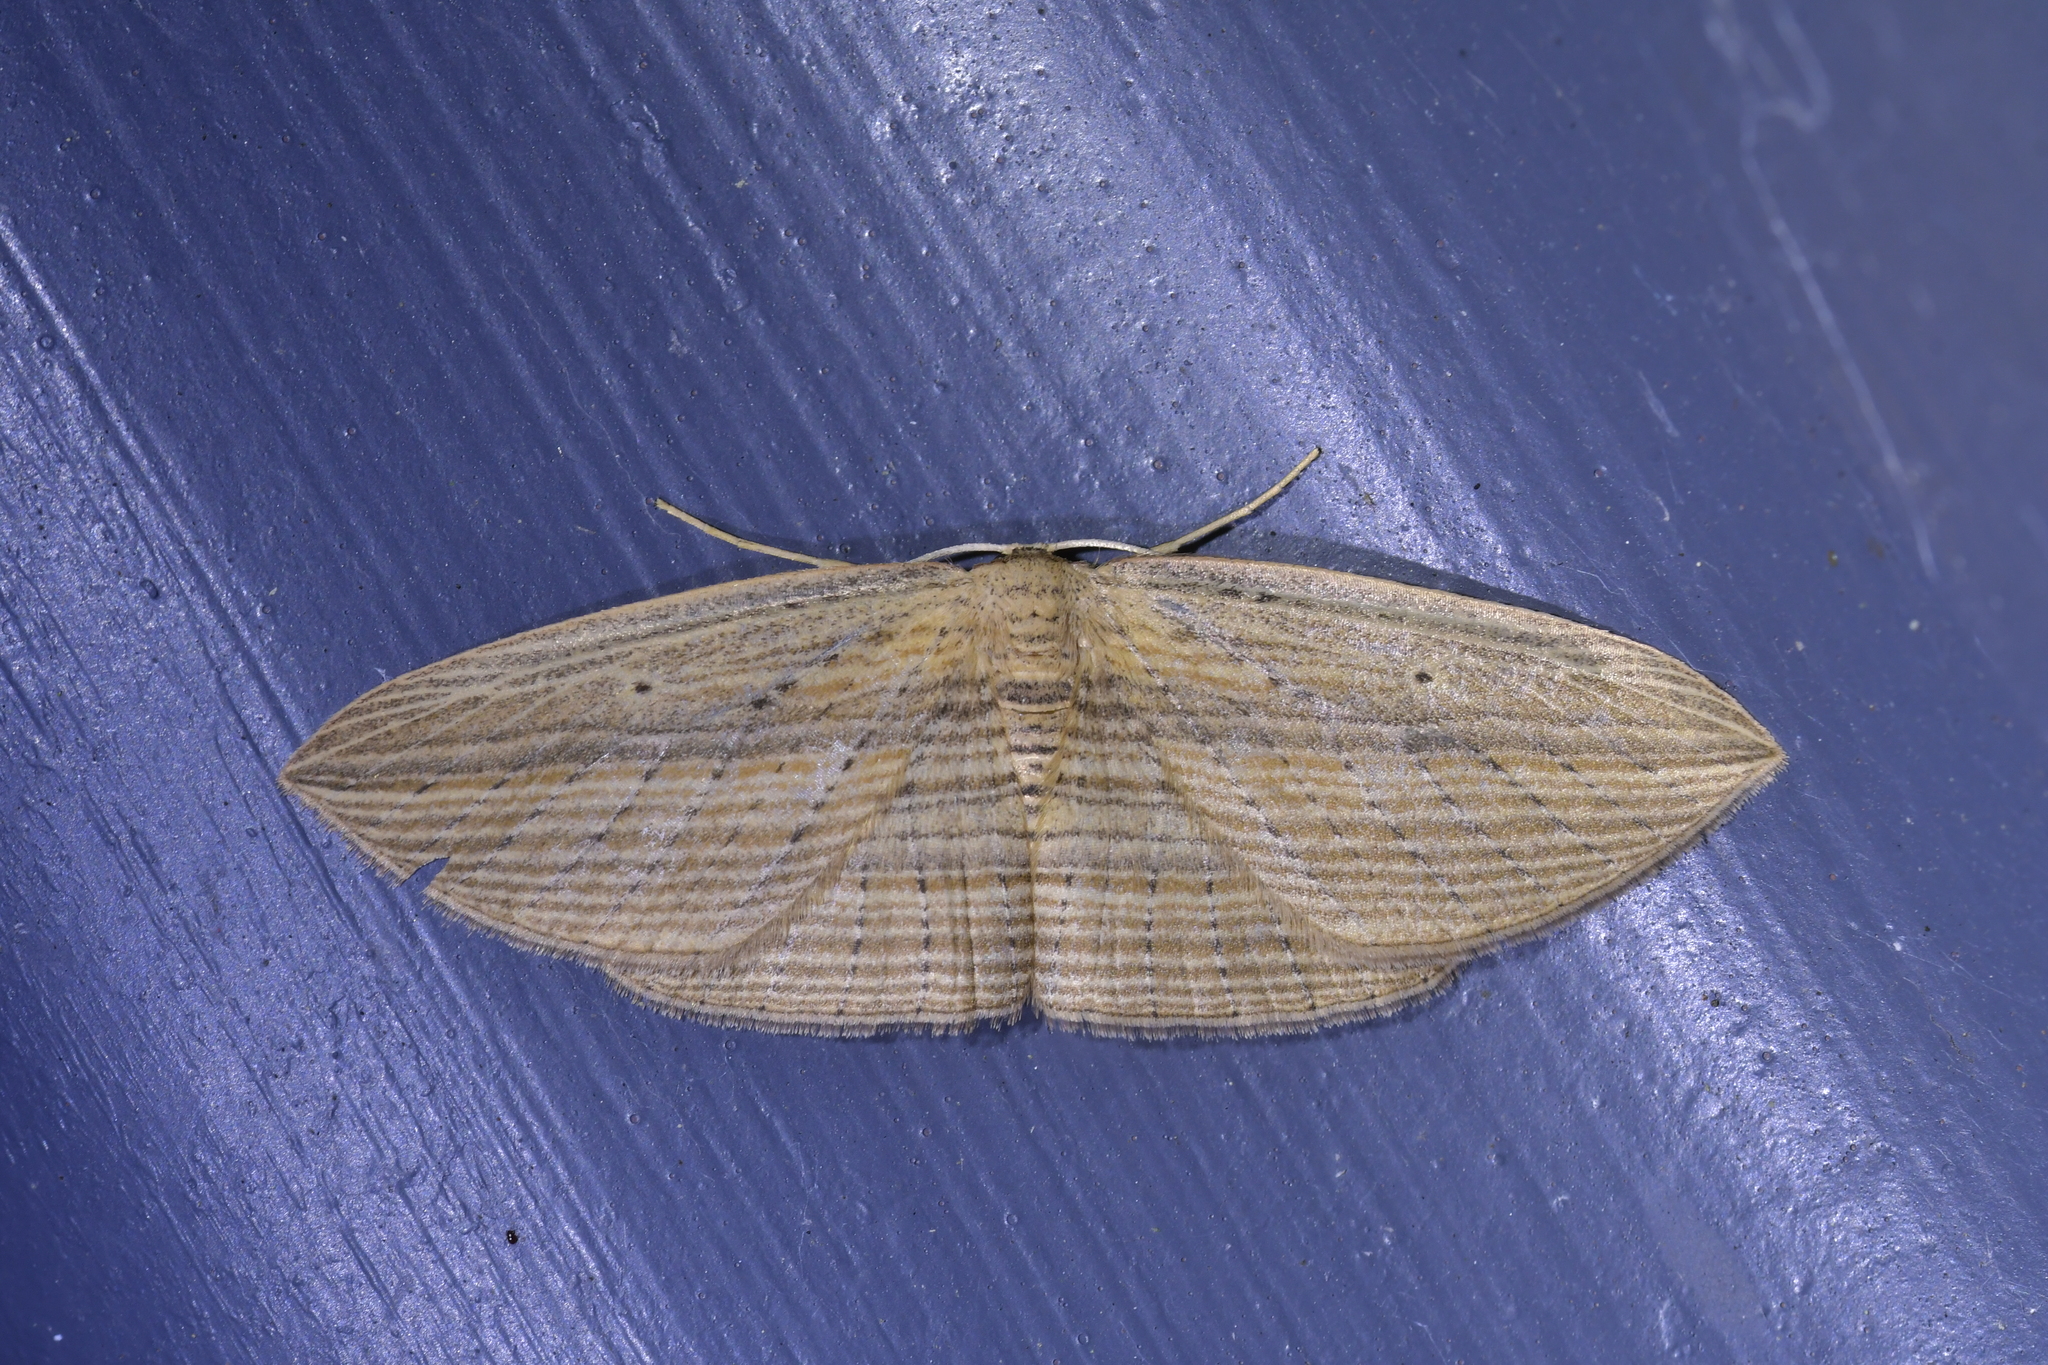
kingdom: Animalia
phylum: Arthropoda
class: Insecta
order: Lepidoptera
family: Geometridae
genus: Epiphryne
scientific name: Epiphryne verriculata
